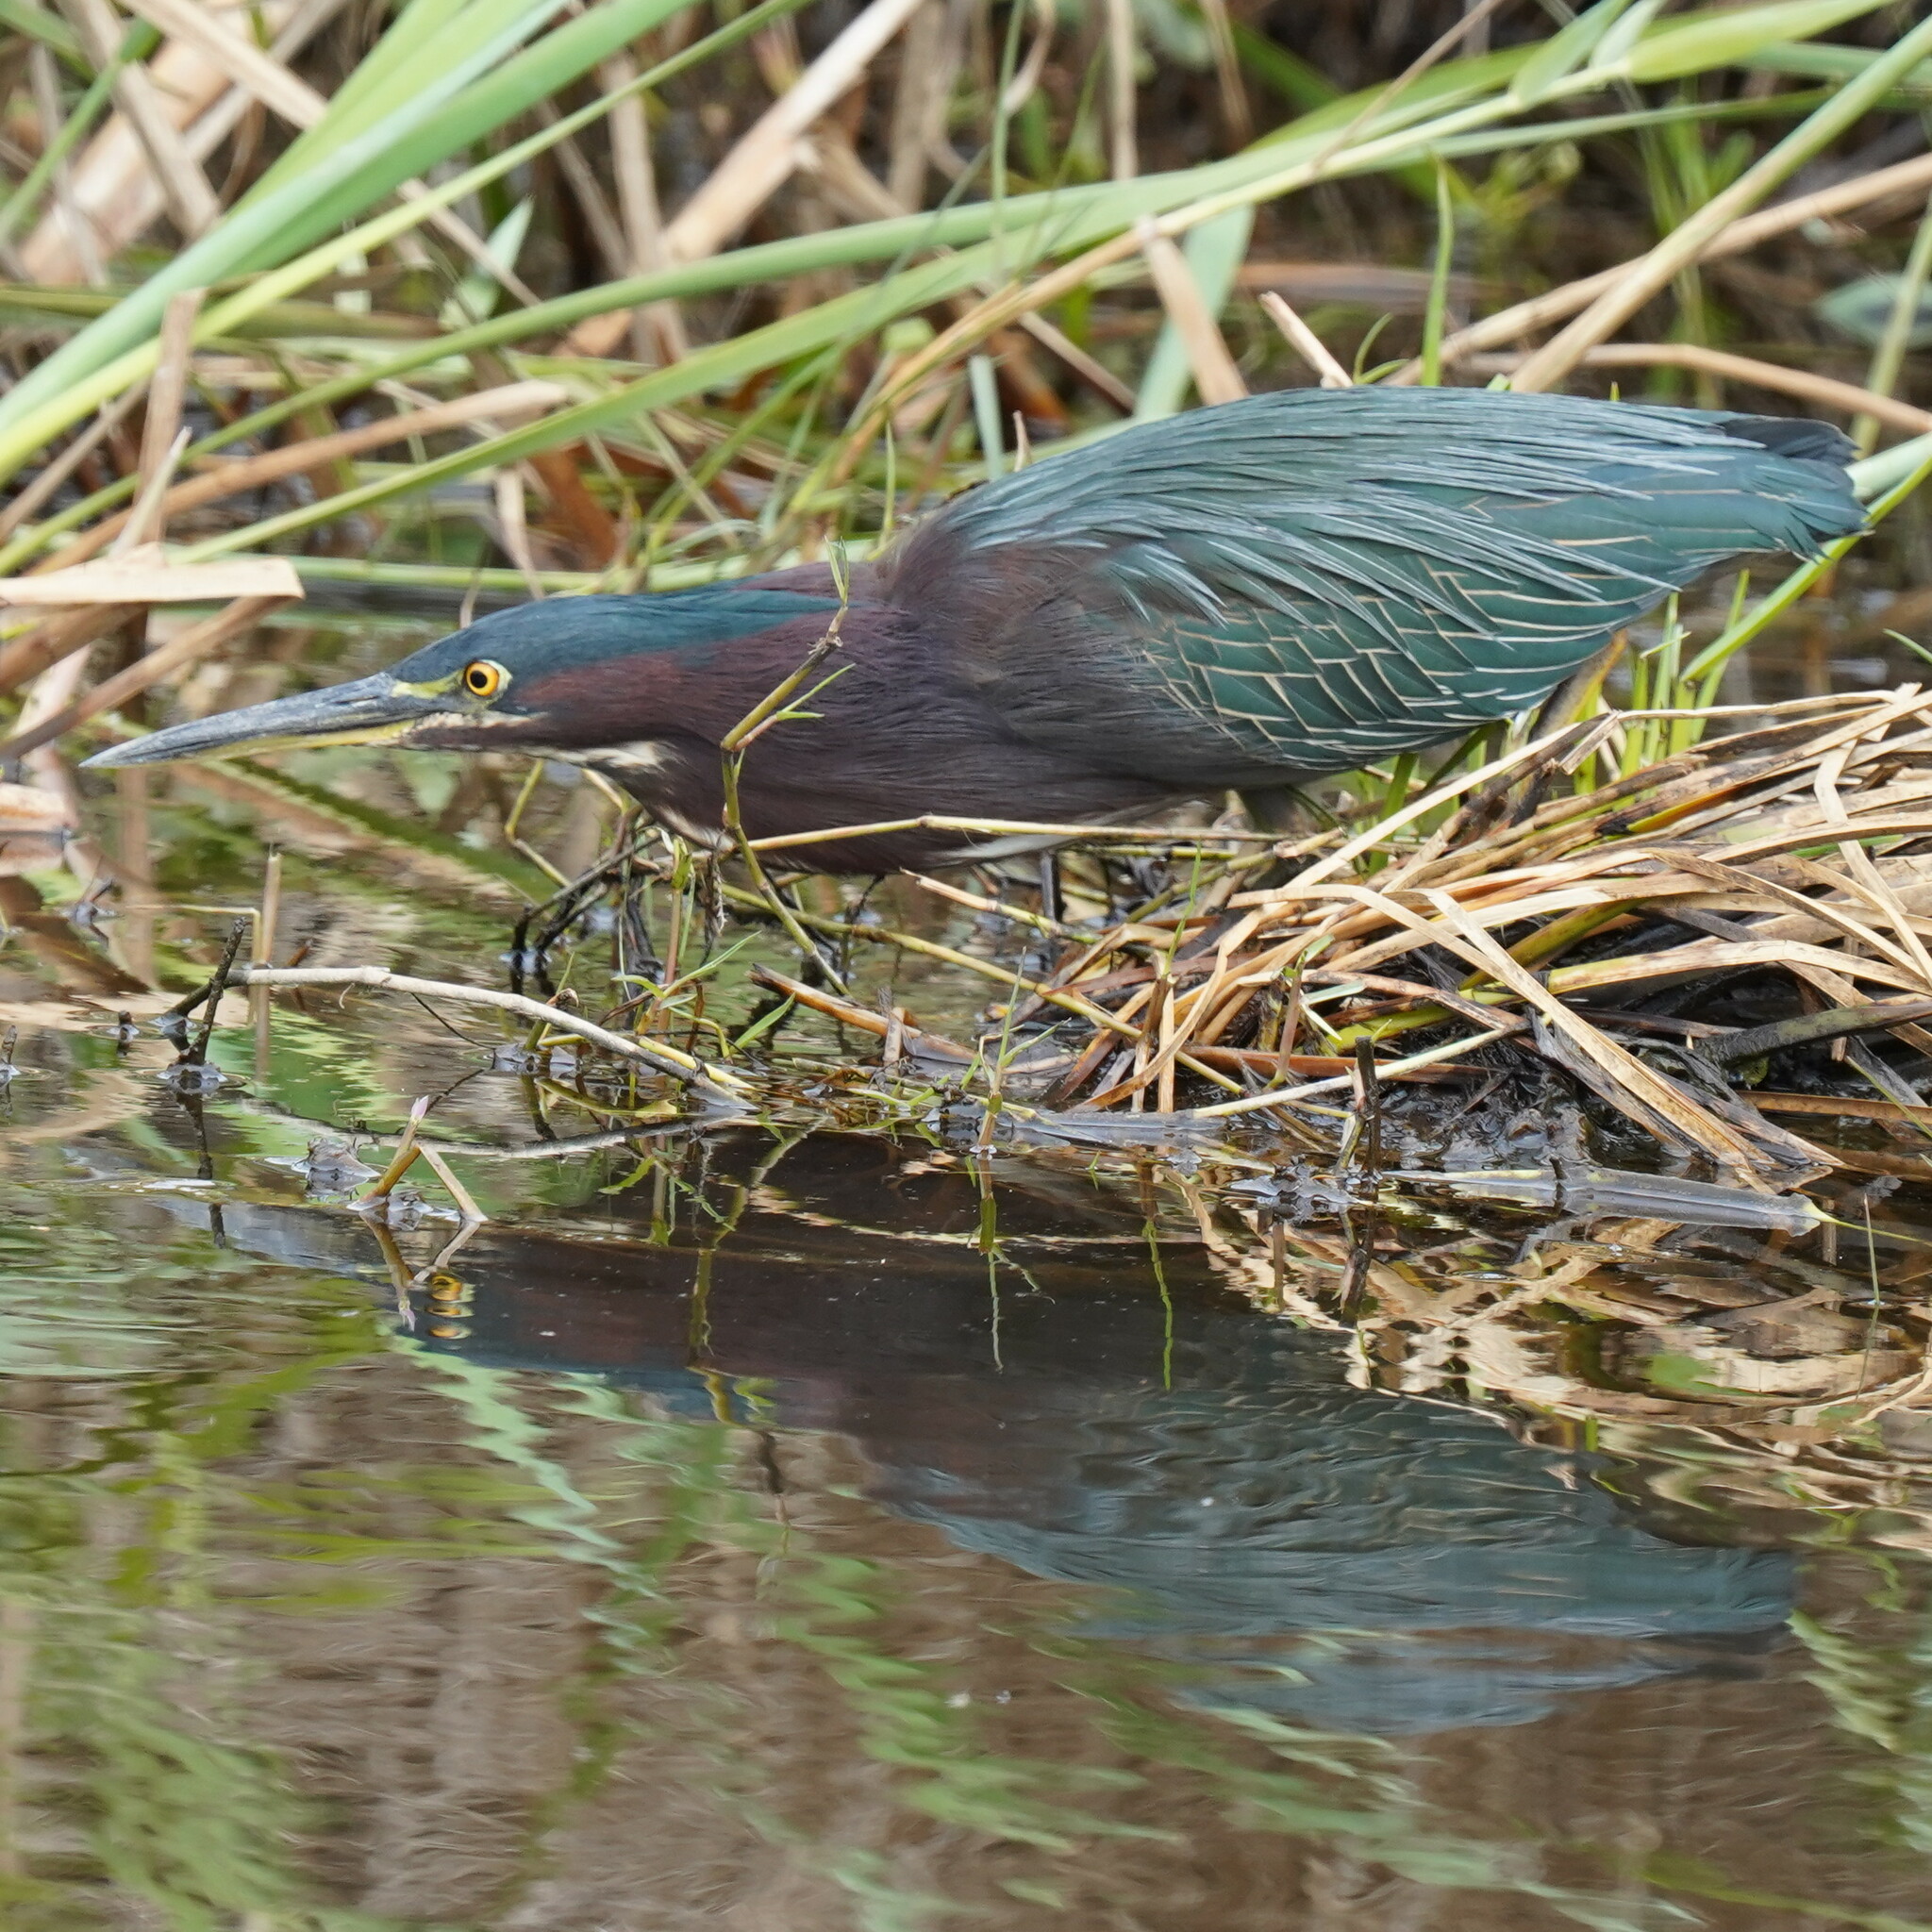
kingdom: Animalia
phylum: Chordata
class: Aves
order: Pelecaniformes
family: Ardeidae
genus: Butorides
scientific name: Butorides virescens
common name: Green heron
